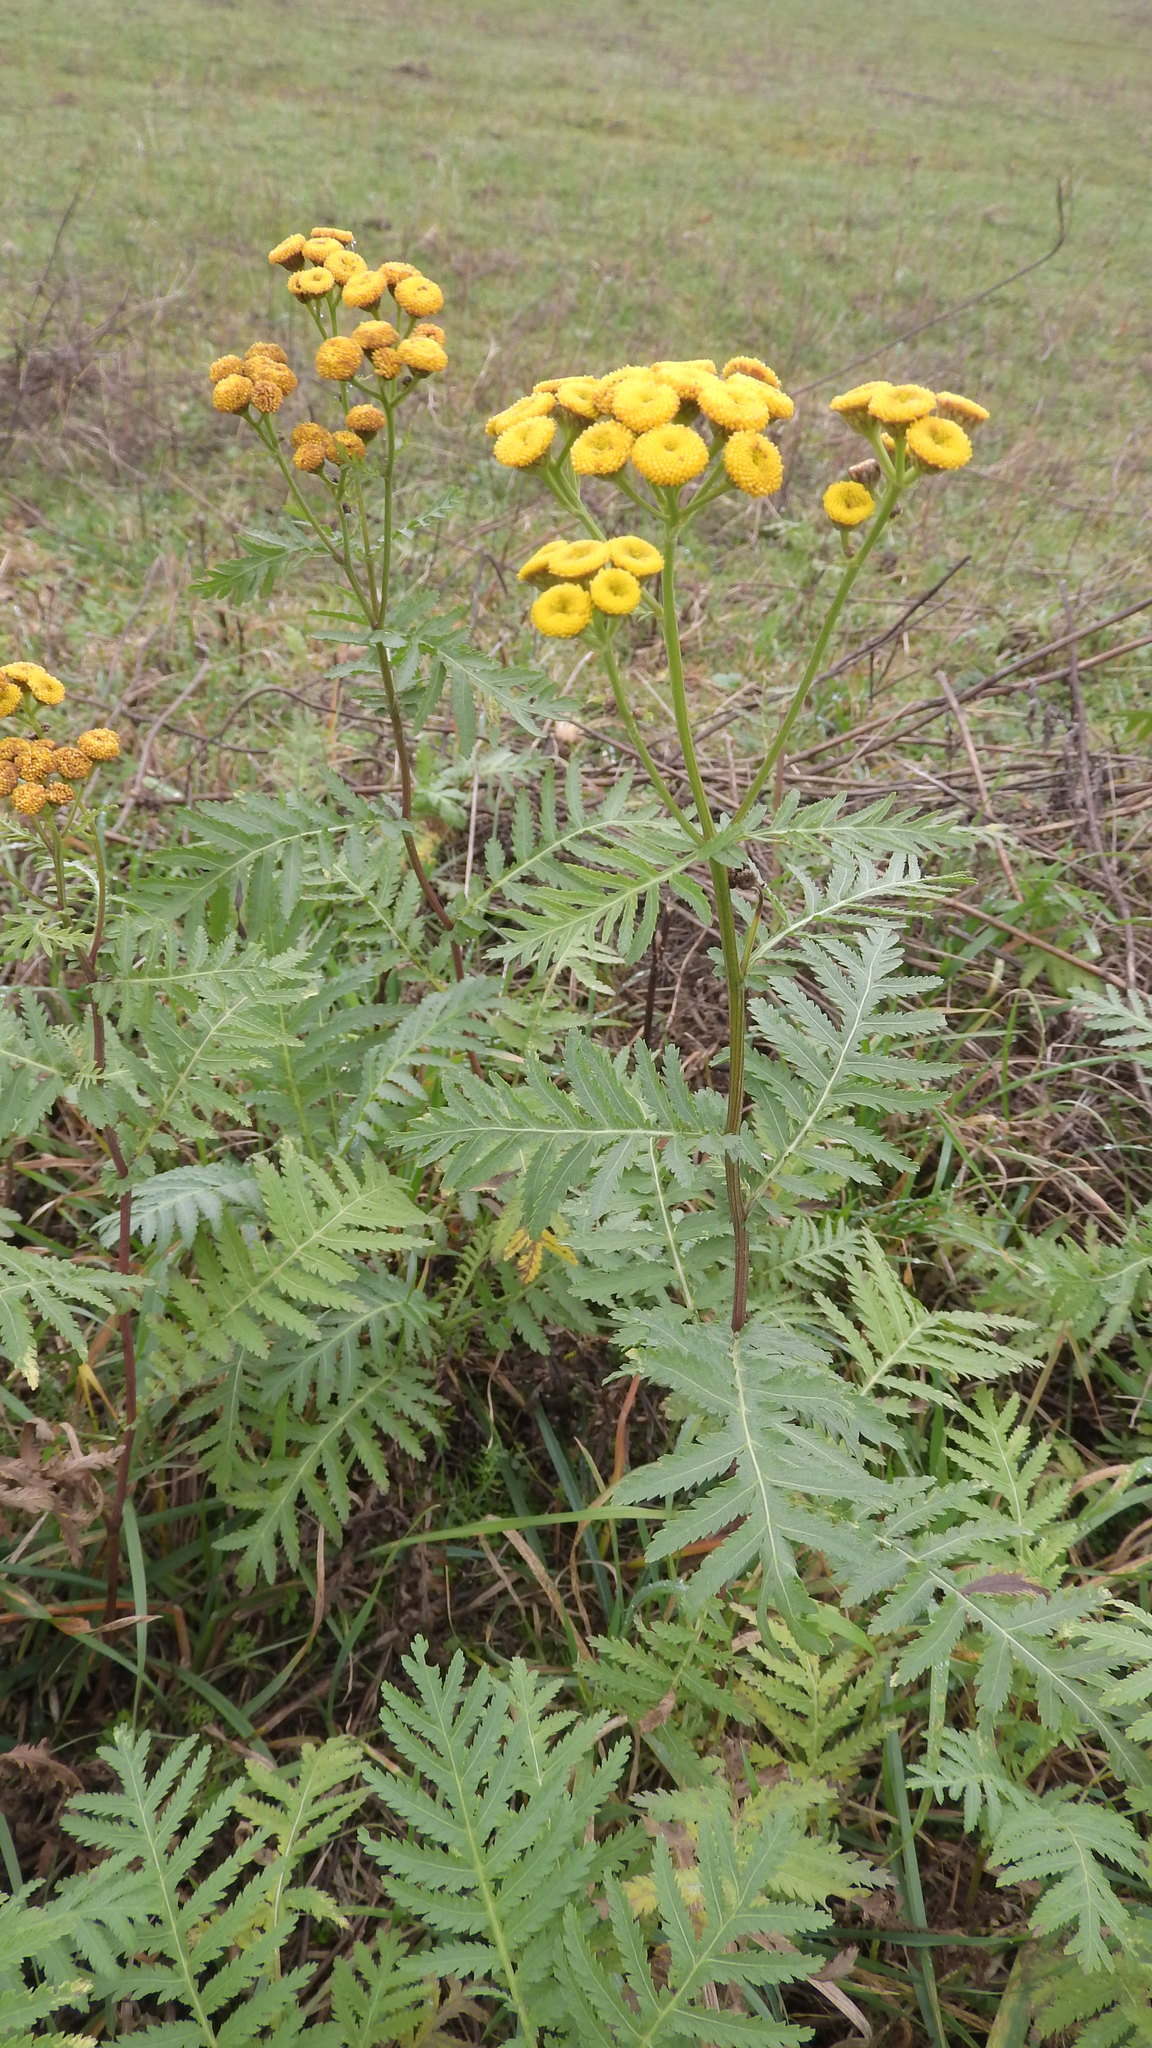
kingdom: Plantae
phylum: Tracheophyta
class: Magnoliopsida
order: Asterales
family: Asteraceae
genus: Tanacetum
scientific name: Tanacetum vulgare
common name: Common tansy
